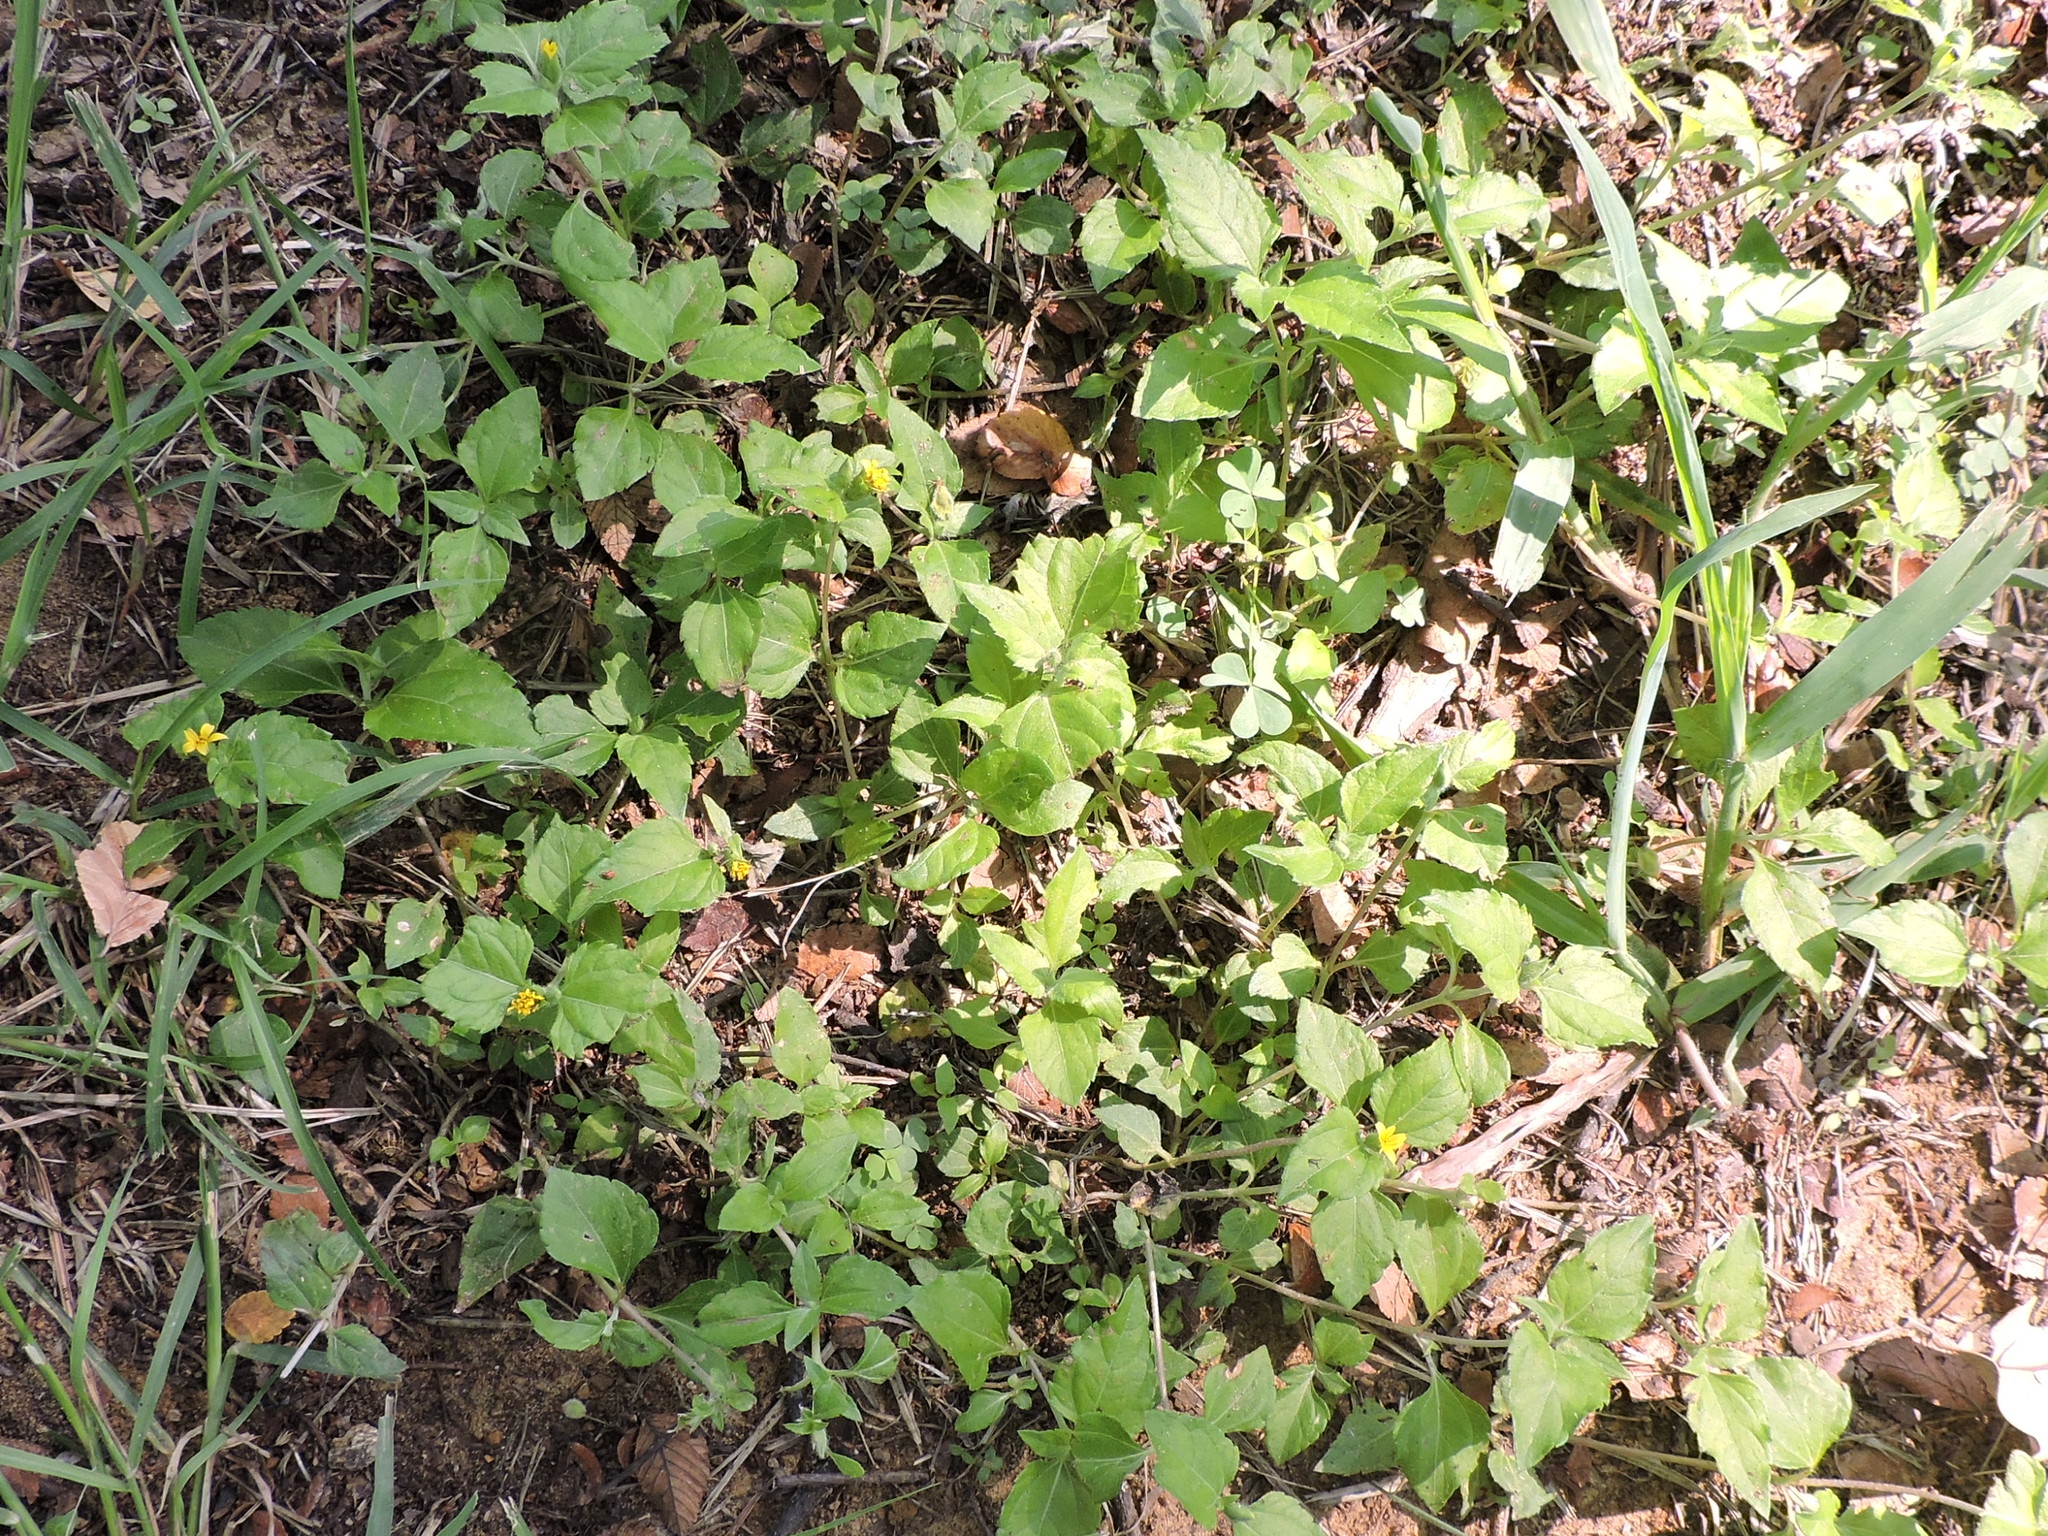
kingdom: Plantae
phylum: Tracheophyta
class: Magnoliopsida
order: Asterales
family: Asteraceae
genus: Calyptocarpus
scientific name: Calyptocarpus vialis
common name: Straggler daisy
